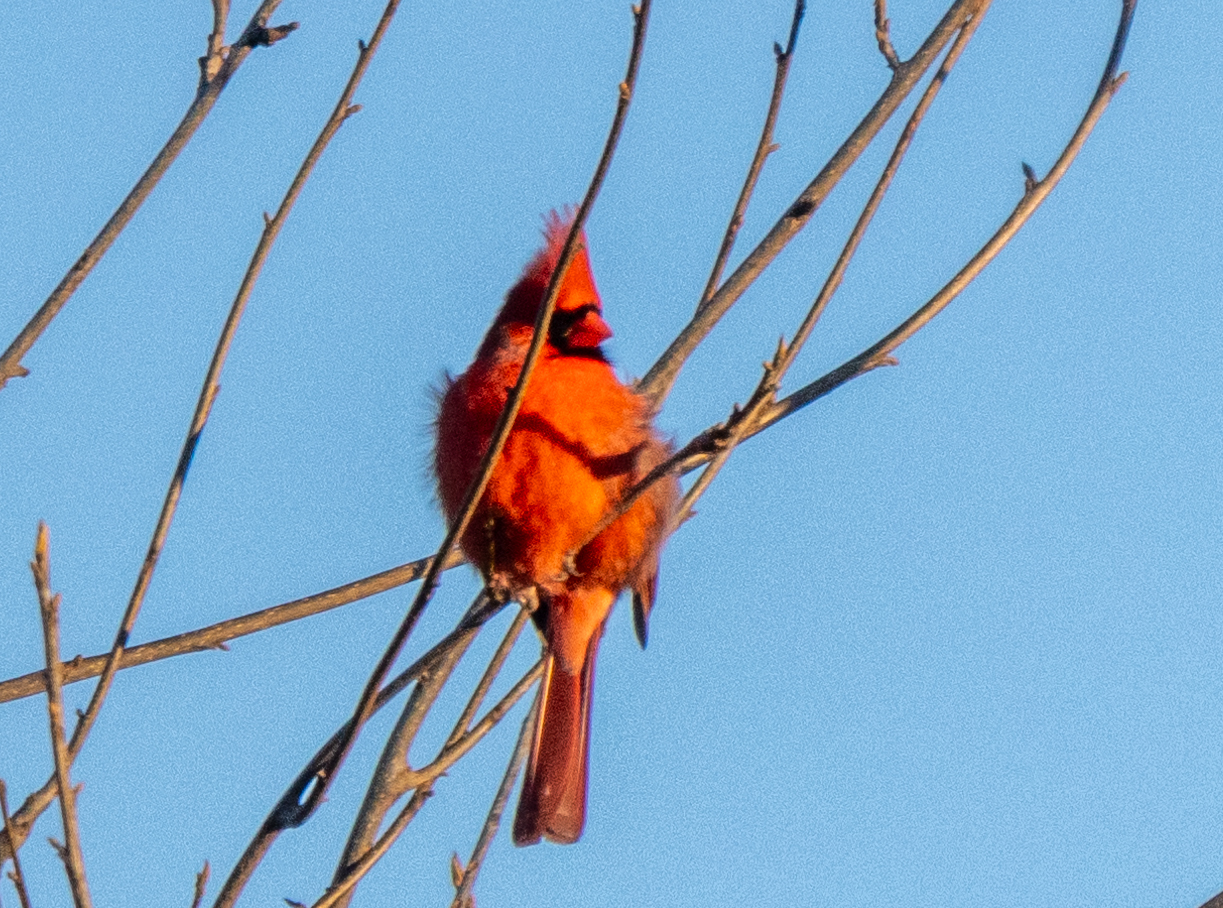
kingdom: Animalia
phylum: Chordata
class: Aves
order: Passeriformes
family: Cardinalidae
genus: Cardinalis
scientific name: Cardinalis cardinalis
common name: Northern cardinal
